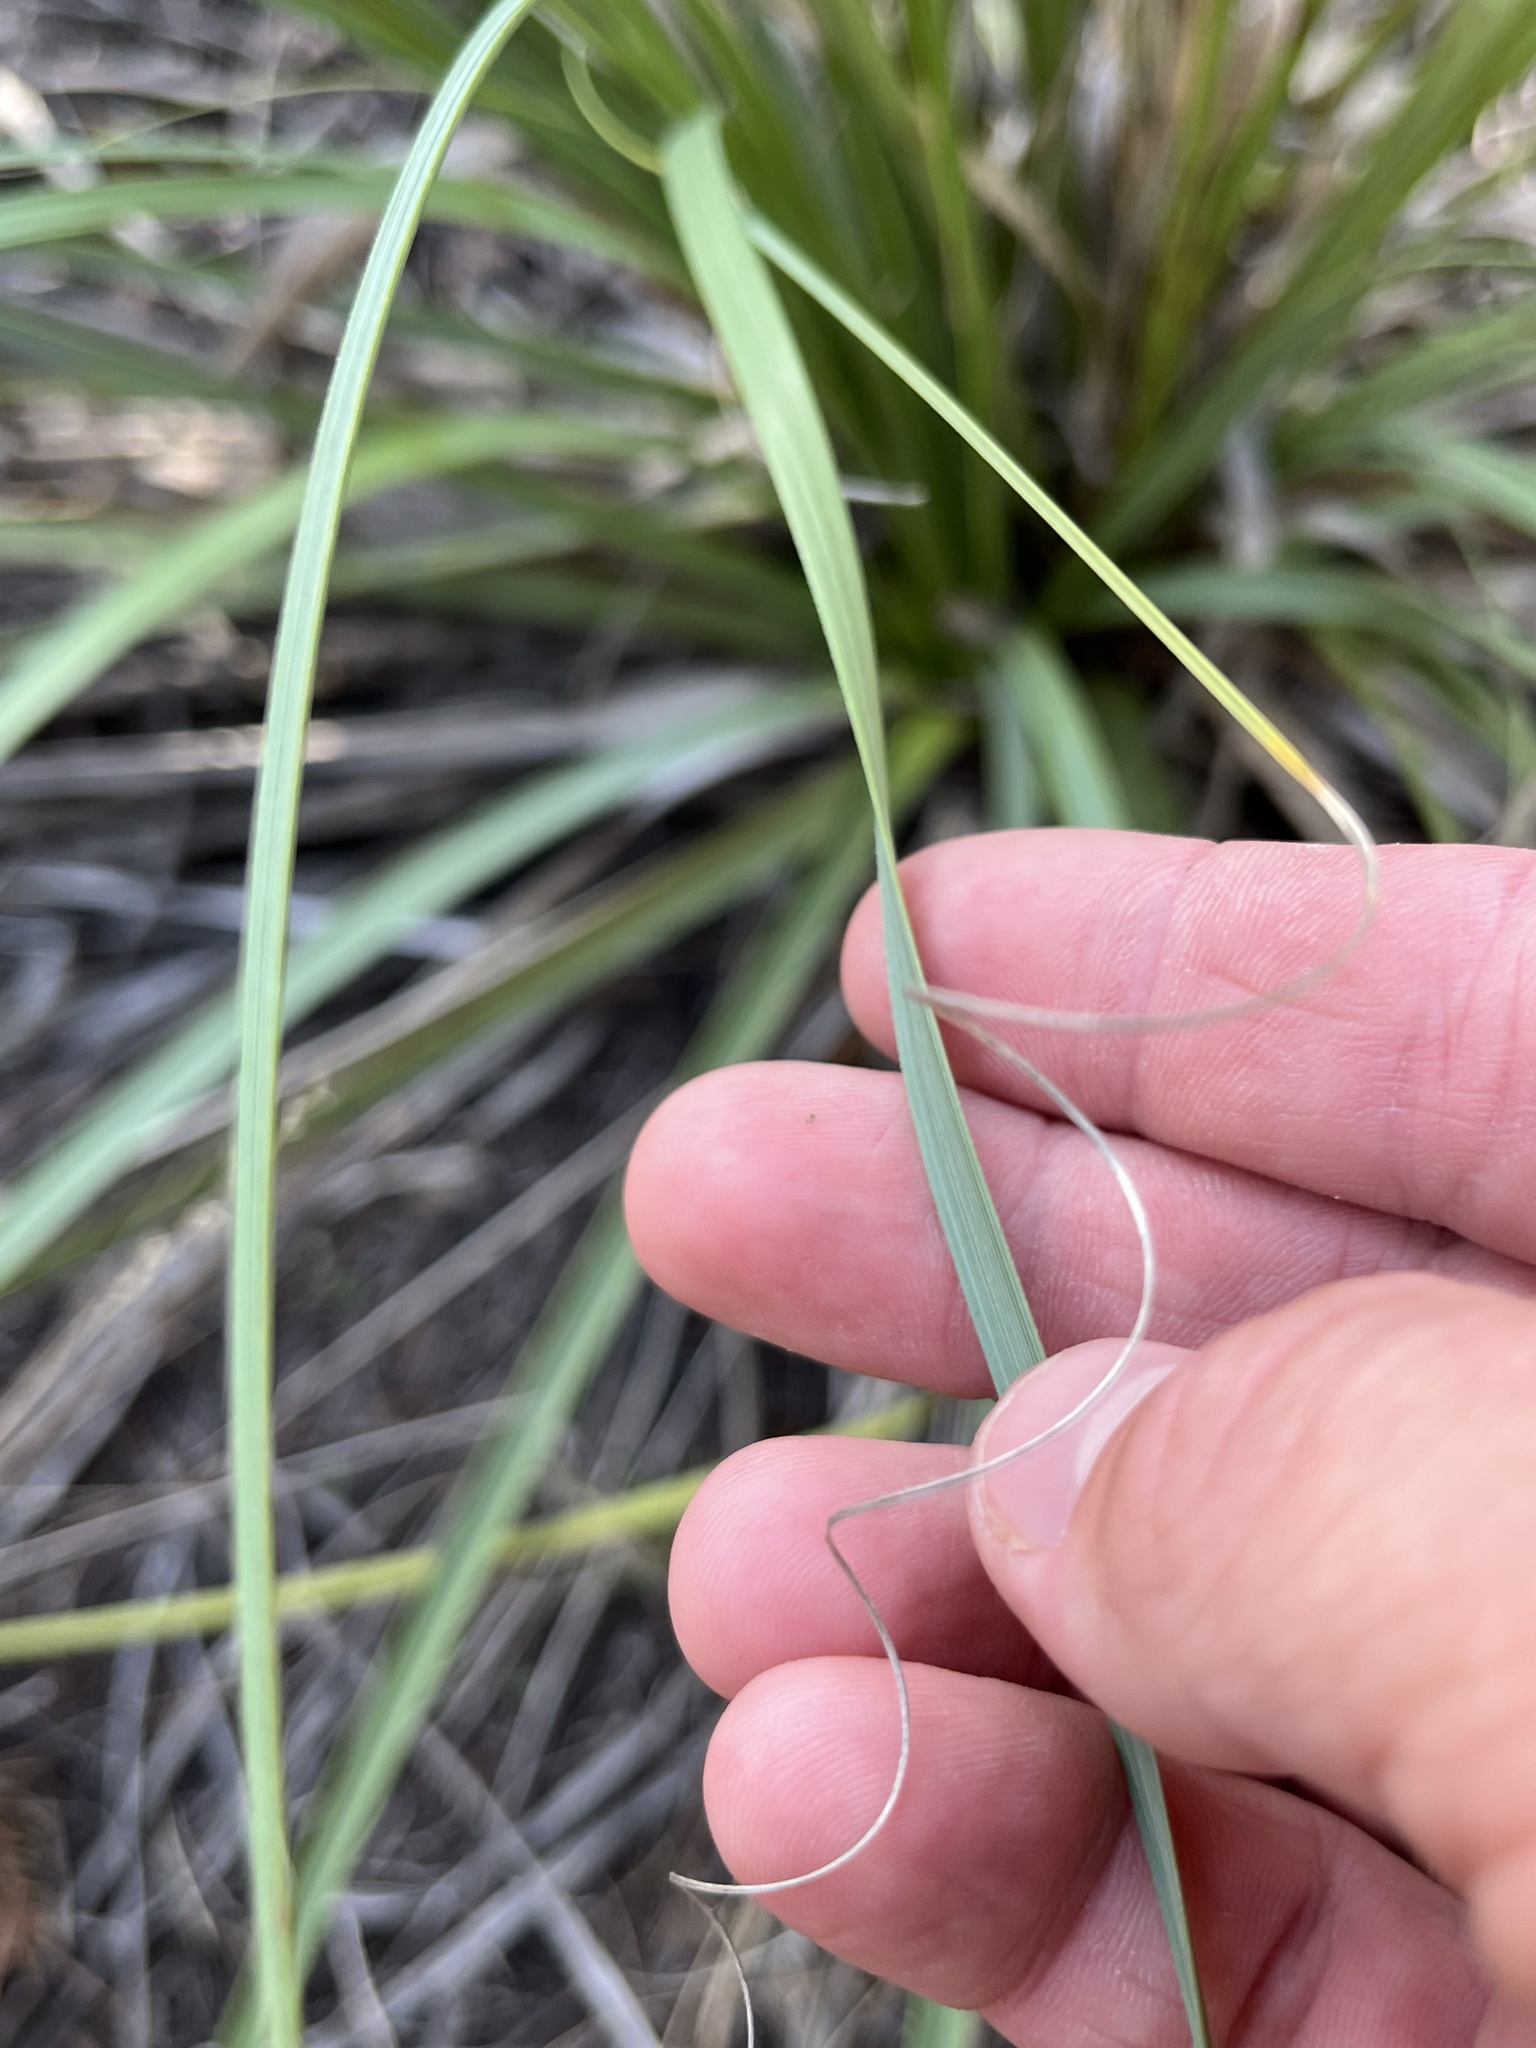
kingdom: Plantae
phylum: Tracheophyta
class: Liliopsida
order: Asparagales
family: Asparagaceae
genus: Nolina
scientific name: Nolina lindheimeriana
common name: Lindheimer's bear-grass
